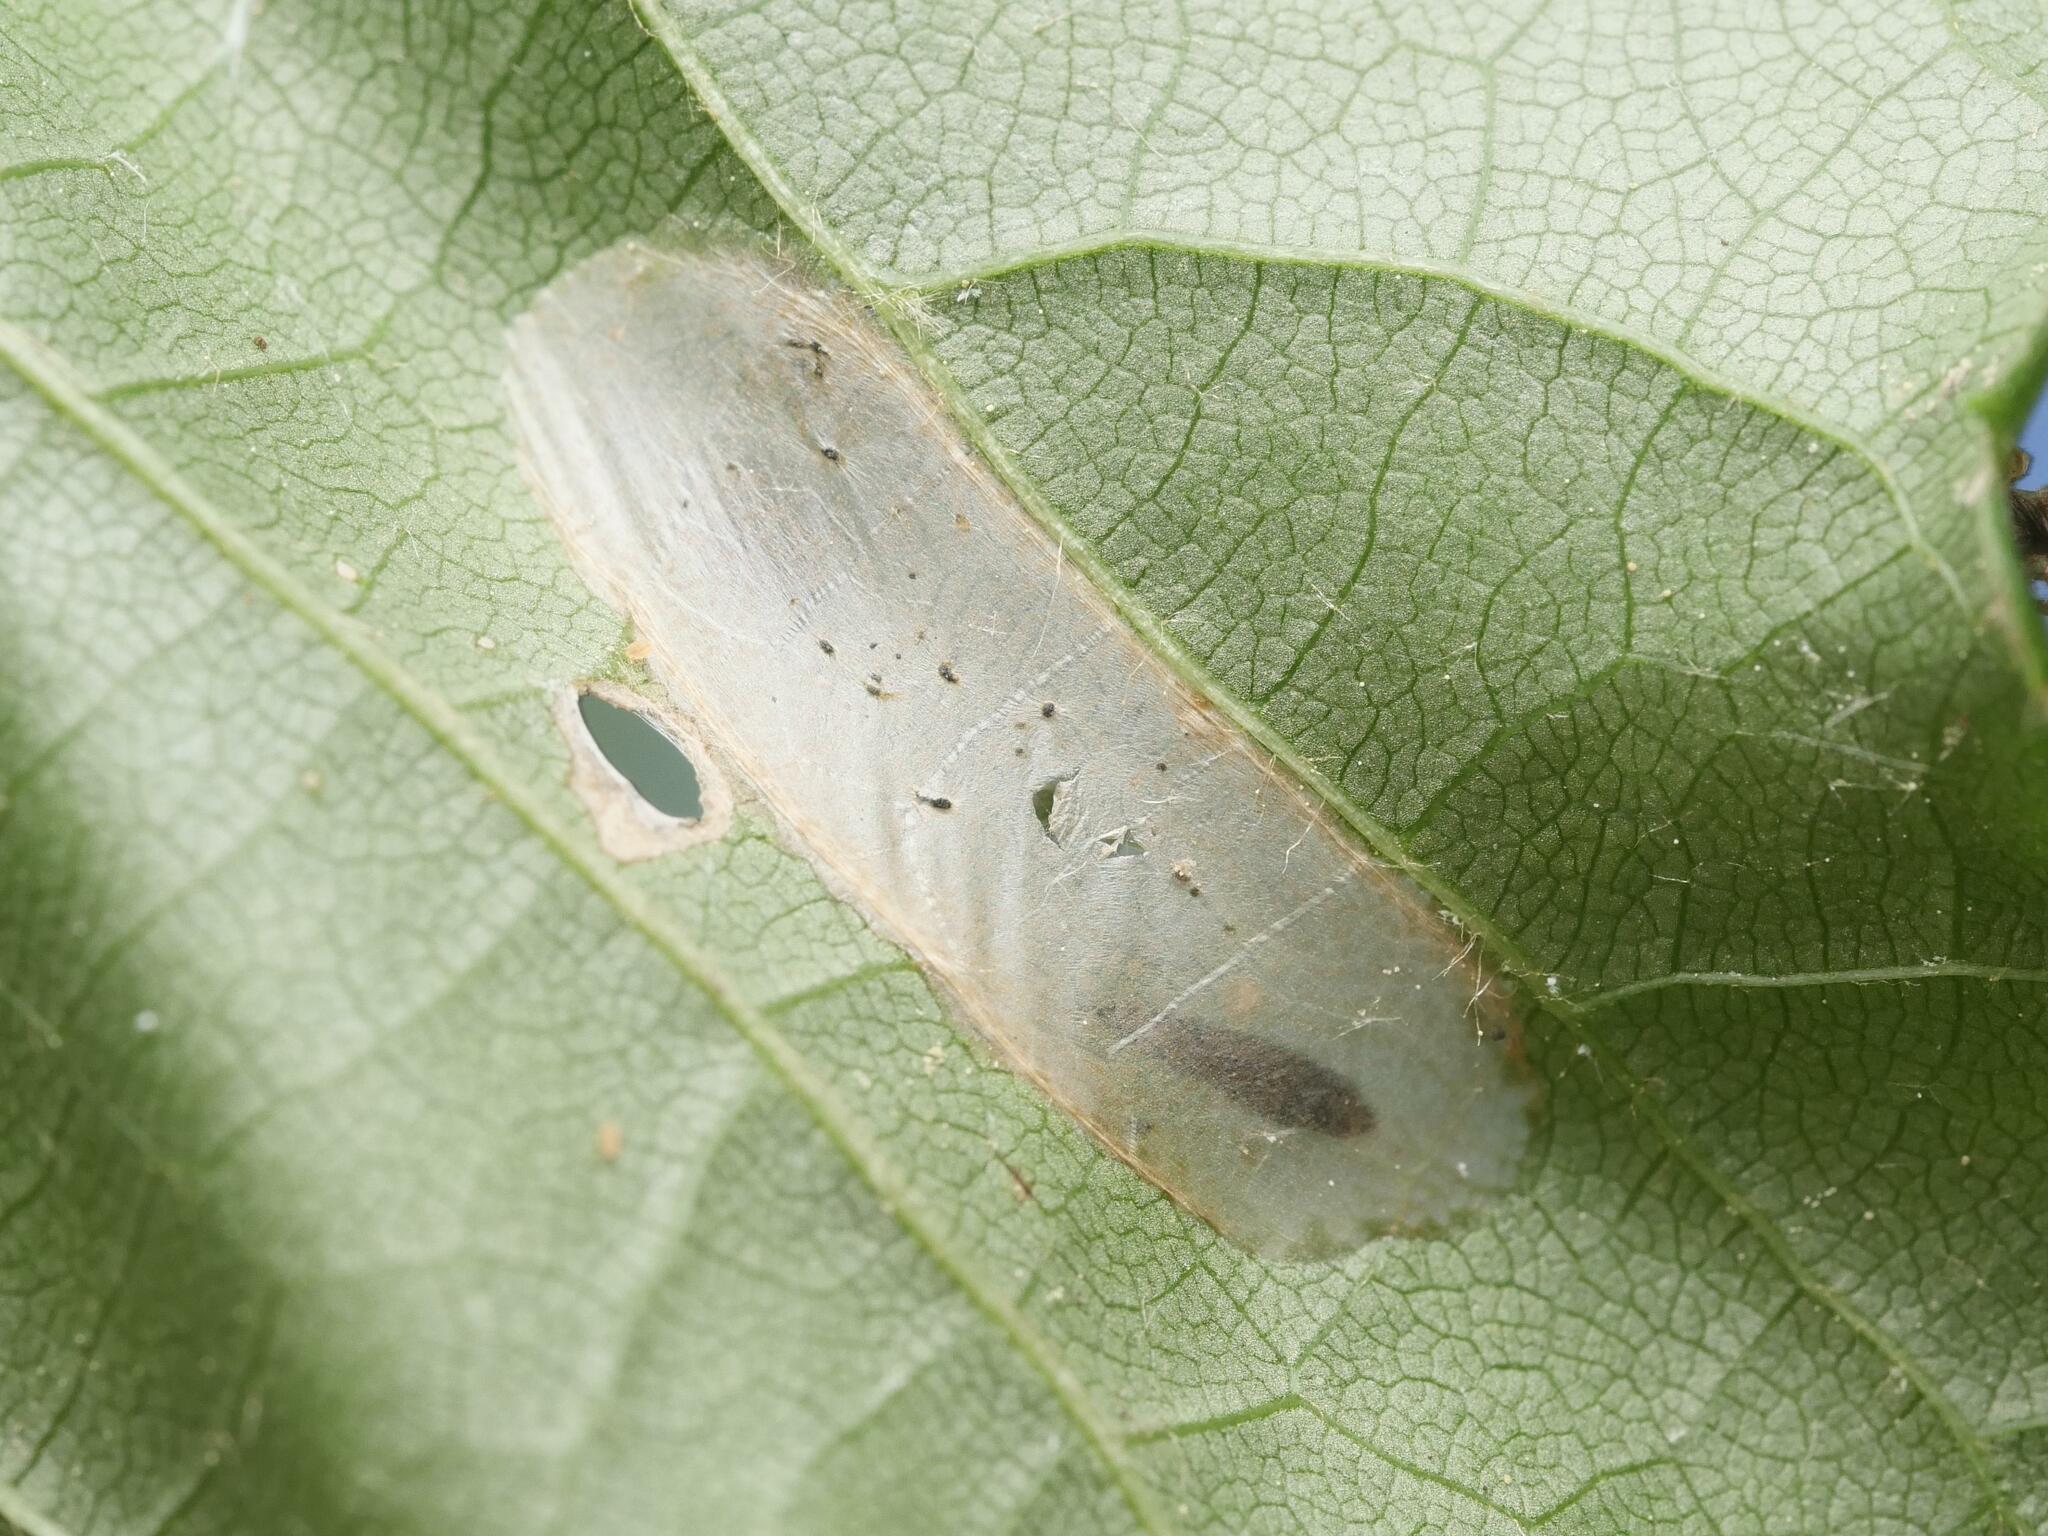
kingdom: Animalia
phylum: Arthropoda
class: Insecta
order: Lepidoptera
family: Gracillariidae
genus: Phyllonorycter
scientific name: Phyllonorycter issikii
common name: Linden midget
